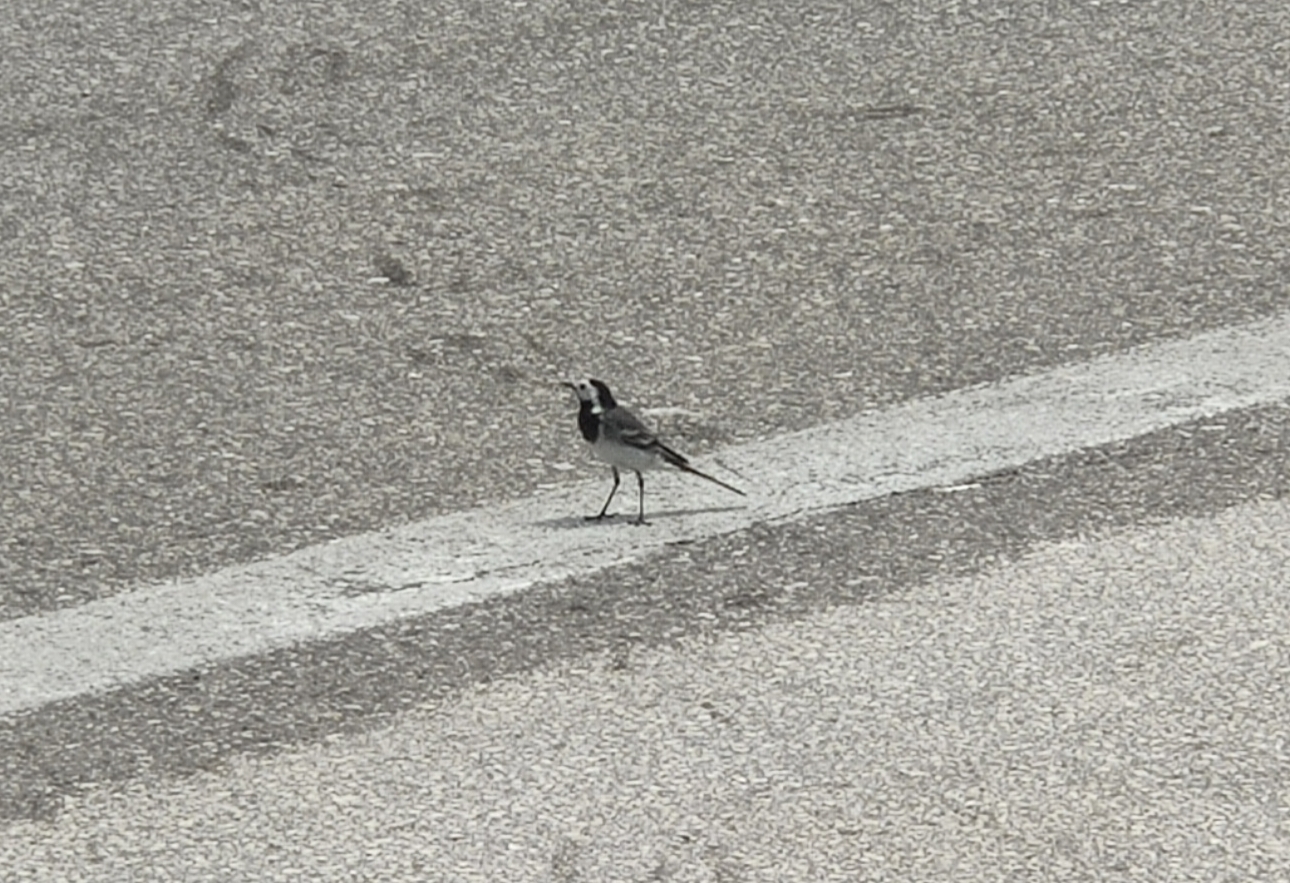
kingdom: Animalia
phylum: Chordata
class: Aves
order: Passeriformes
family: Motacillidae
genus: Motacilla
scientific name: Motacilla alba
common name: White wagtail
